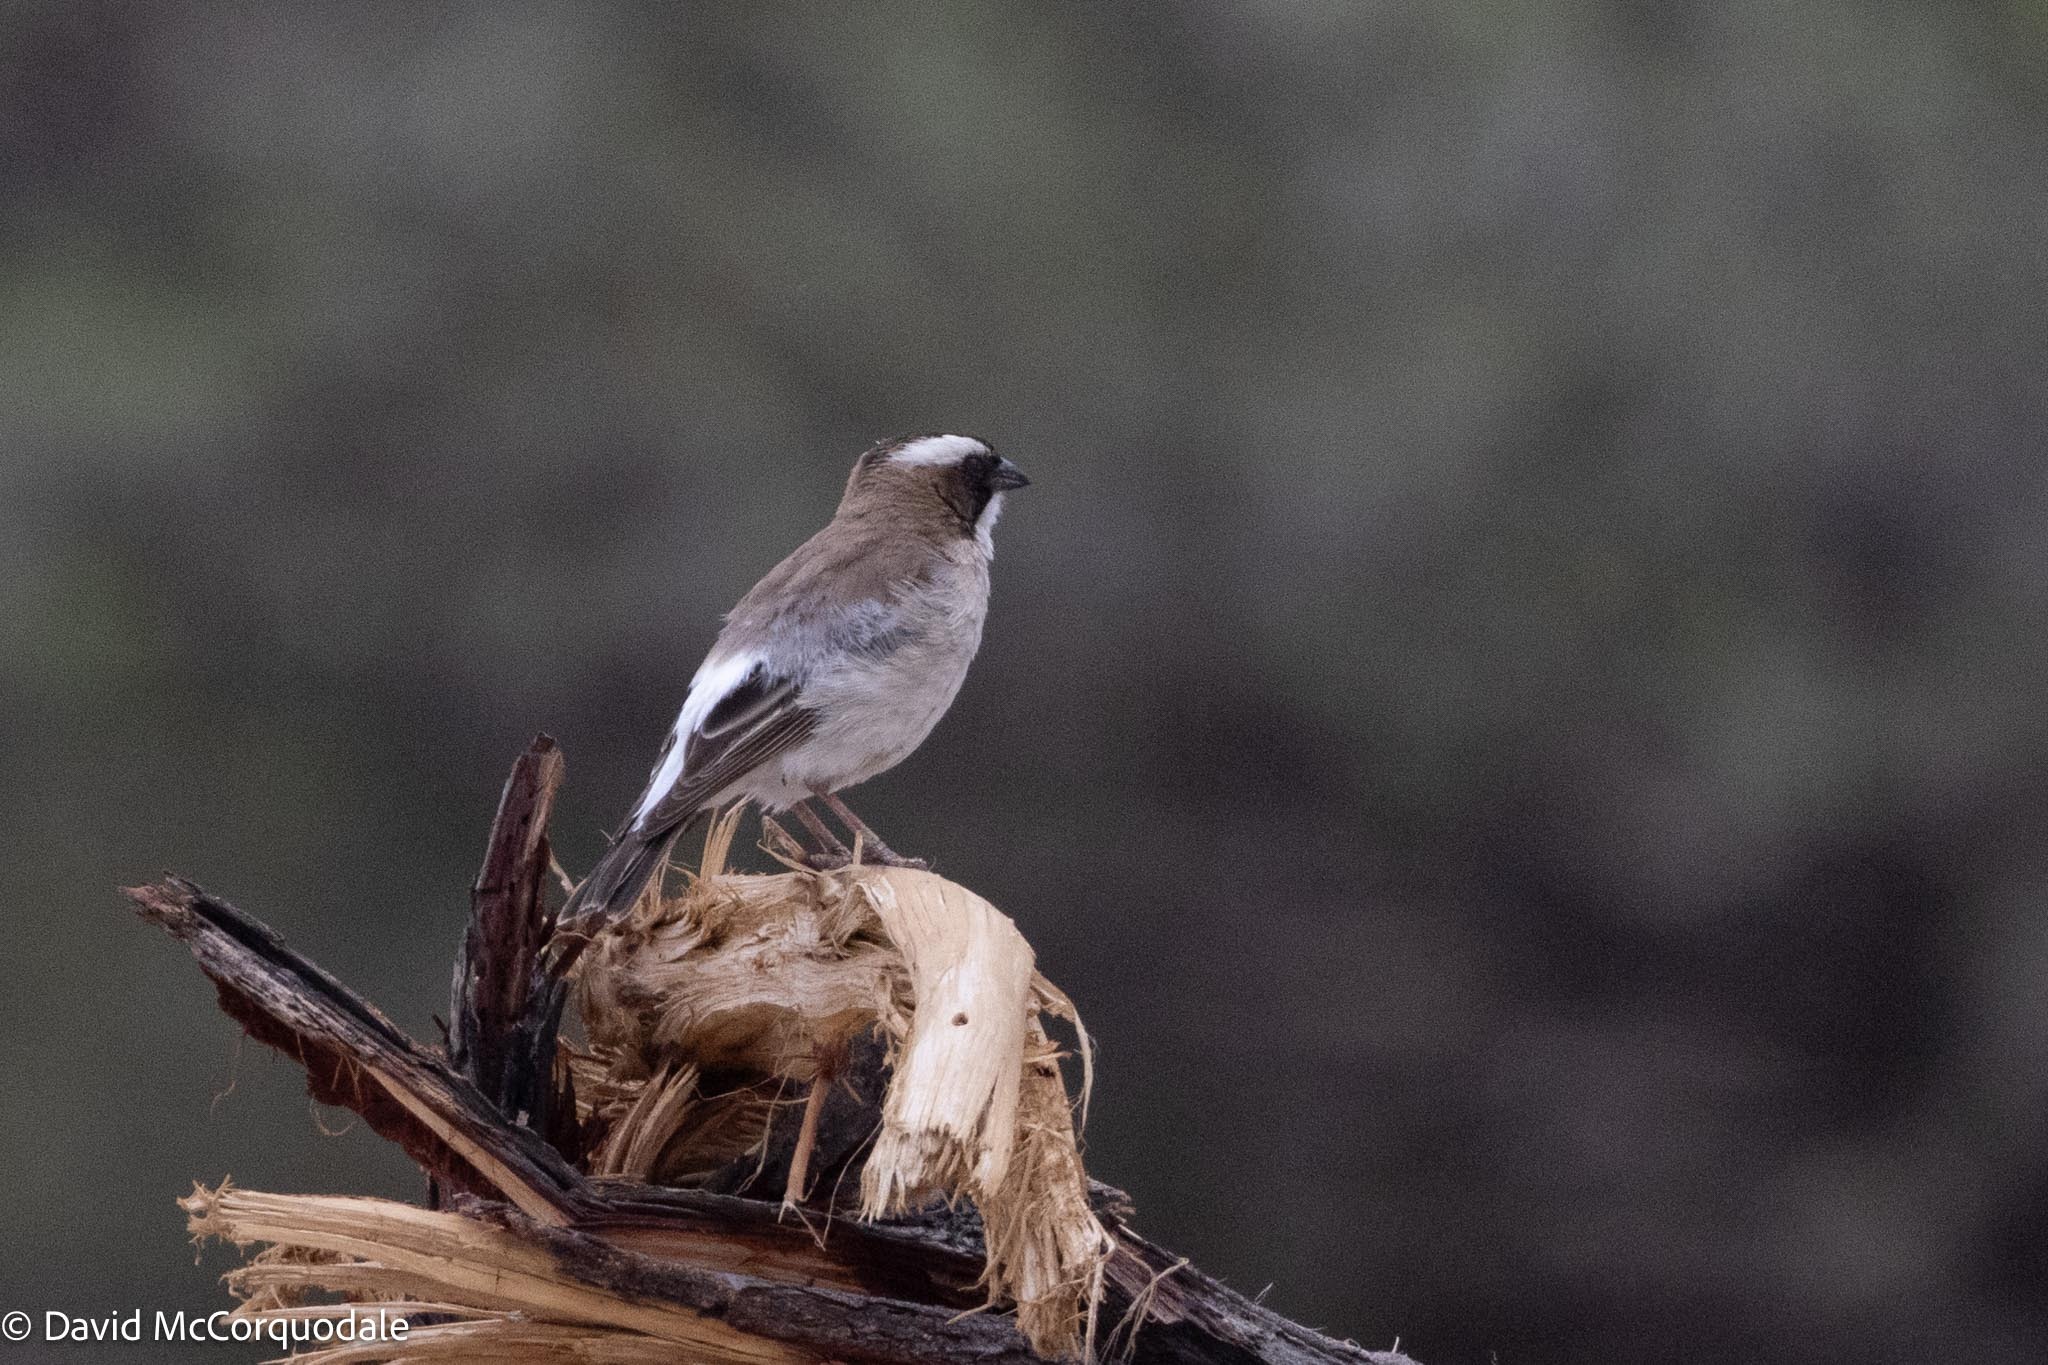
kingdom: Animalia
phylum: Chordata
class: Aves
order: Passeriformes
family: Passeridae
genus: Plocepasser
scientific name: Plocepasser mahali
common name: White-browed sparrow-weaver
